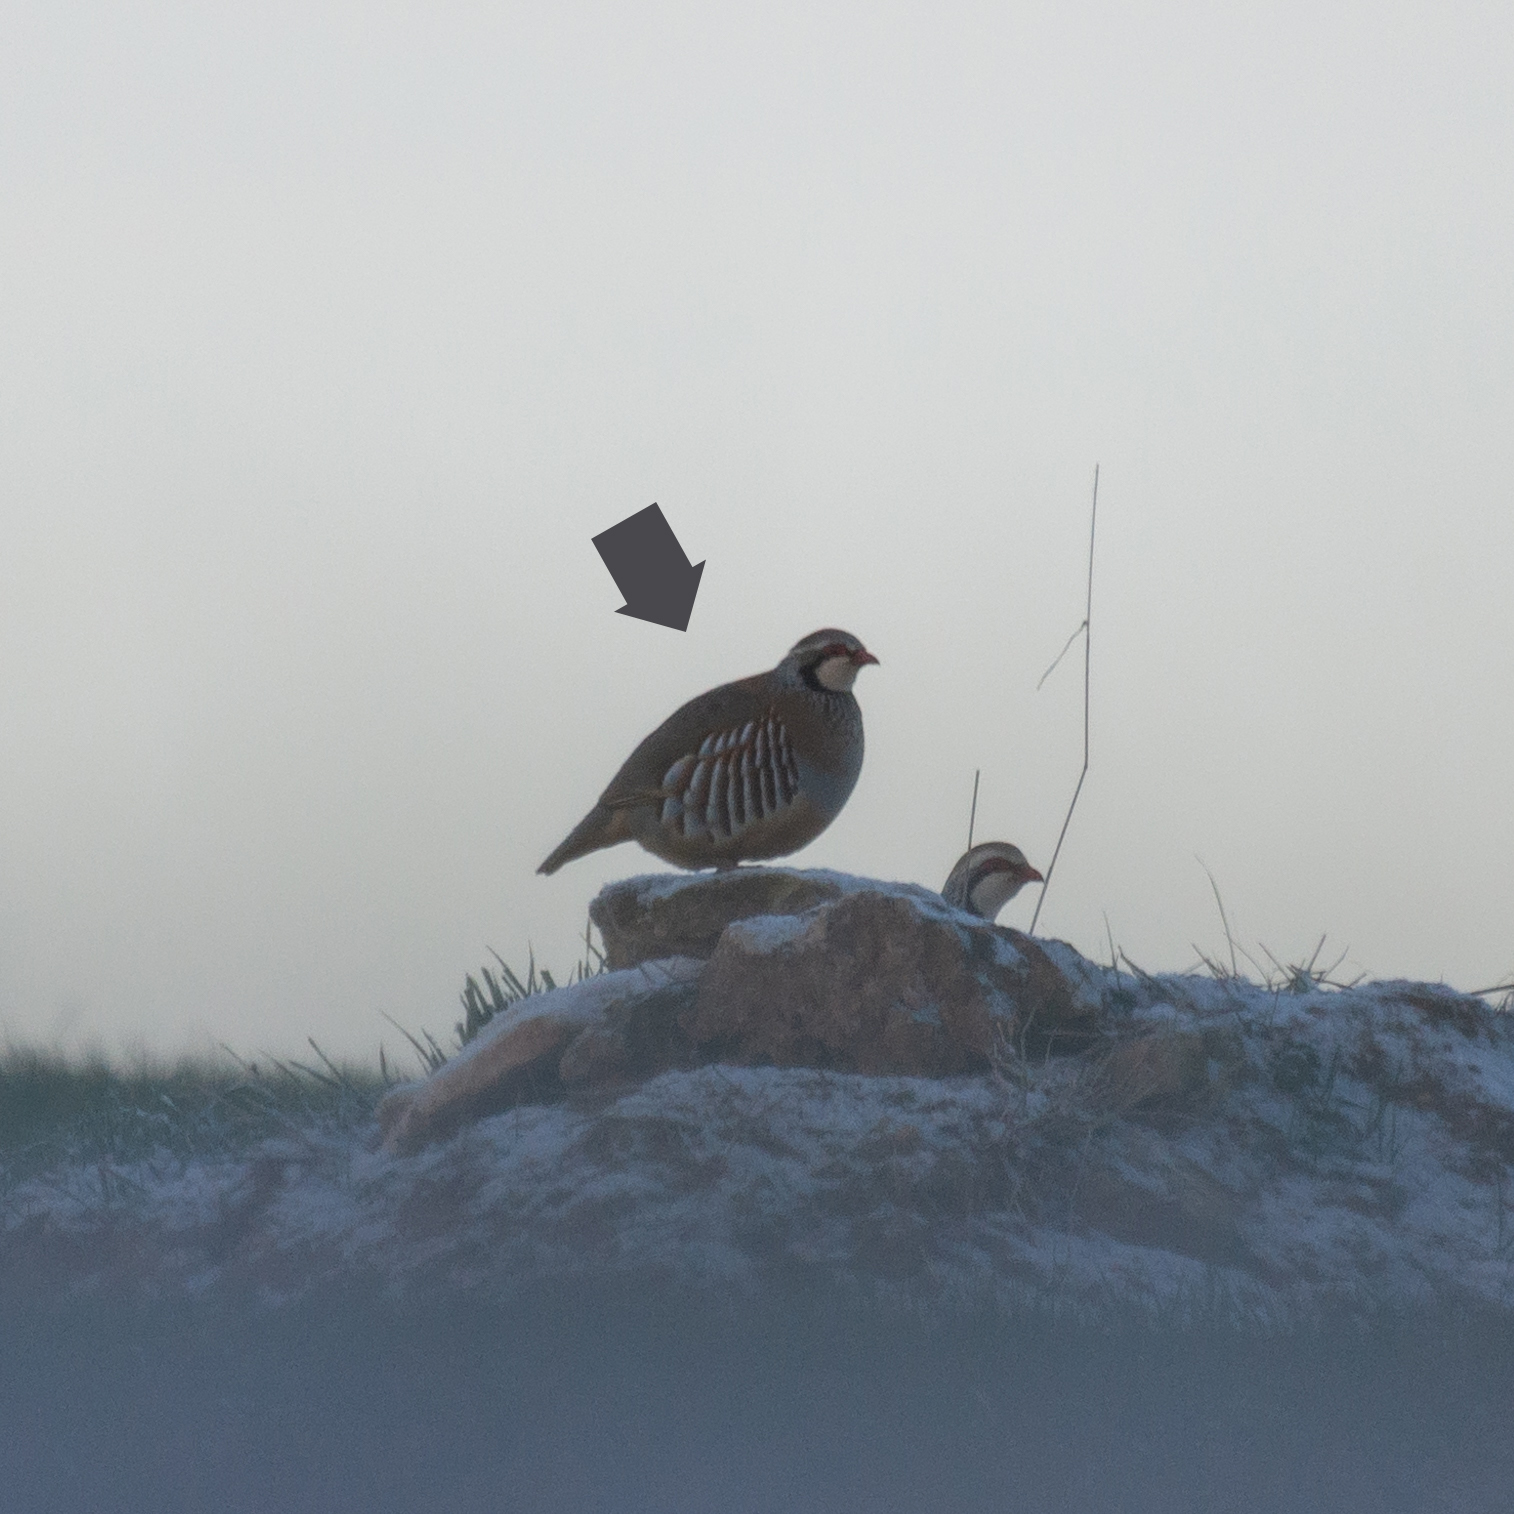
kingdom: Animalia
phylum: Chordata
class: Aves
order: Galliformes
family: Phasianidae
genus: Alectoris
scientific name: Alectoris rufa
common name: Red-legged partridge
